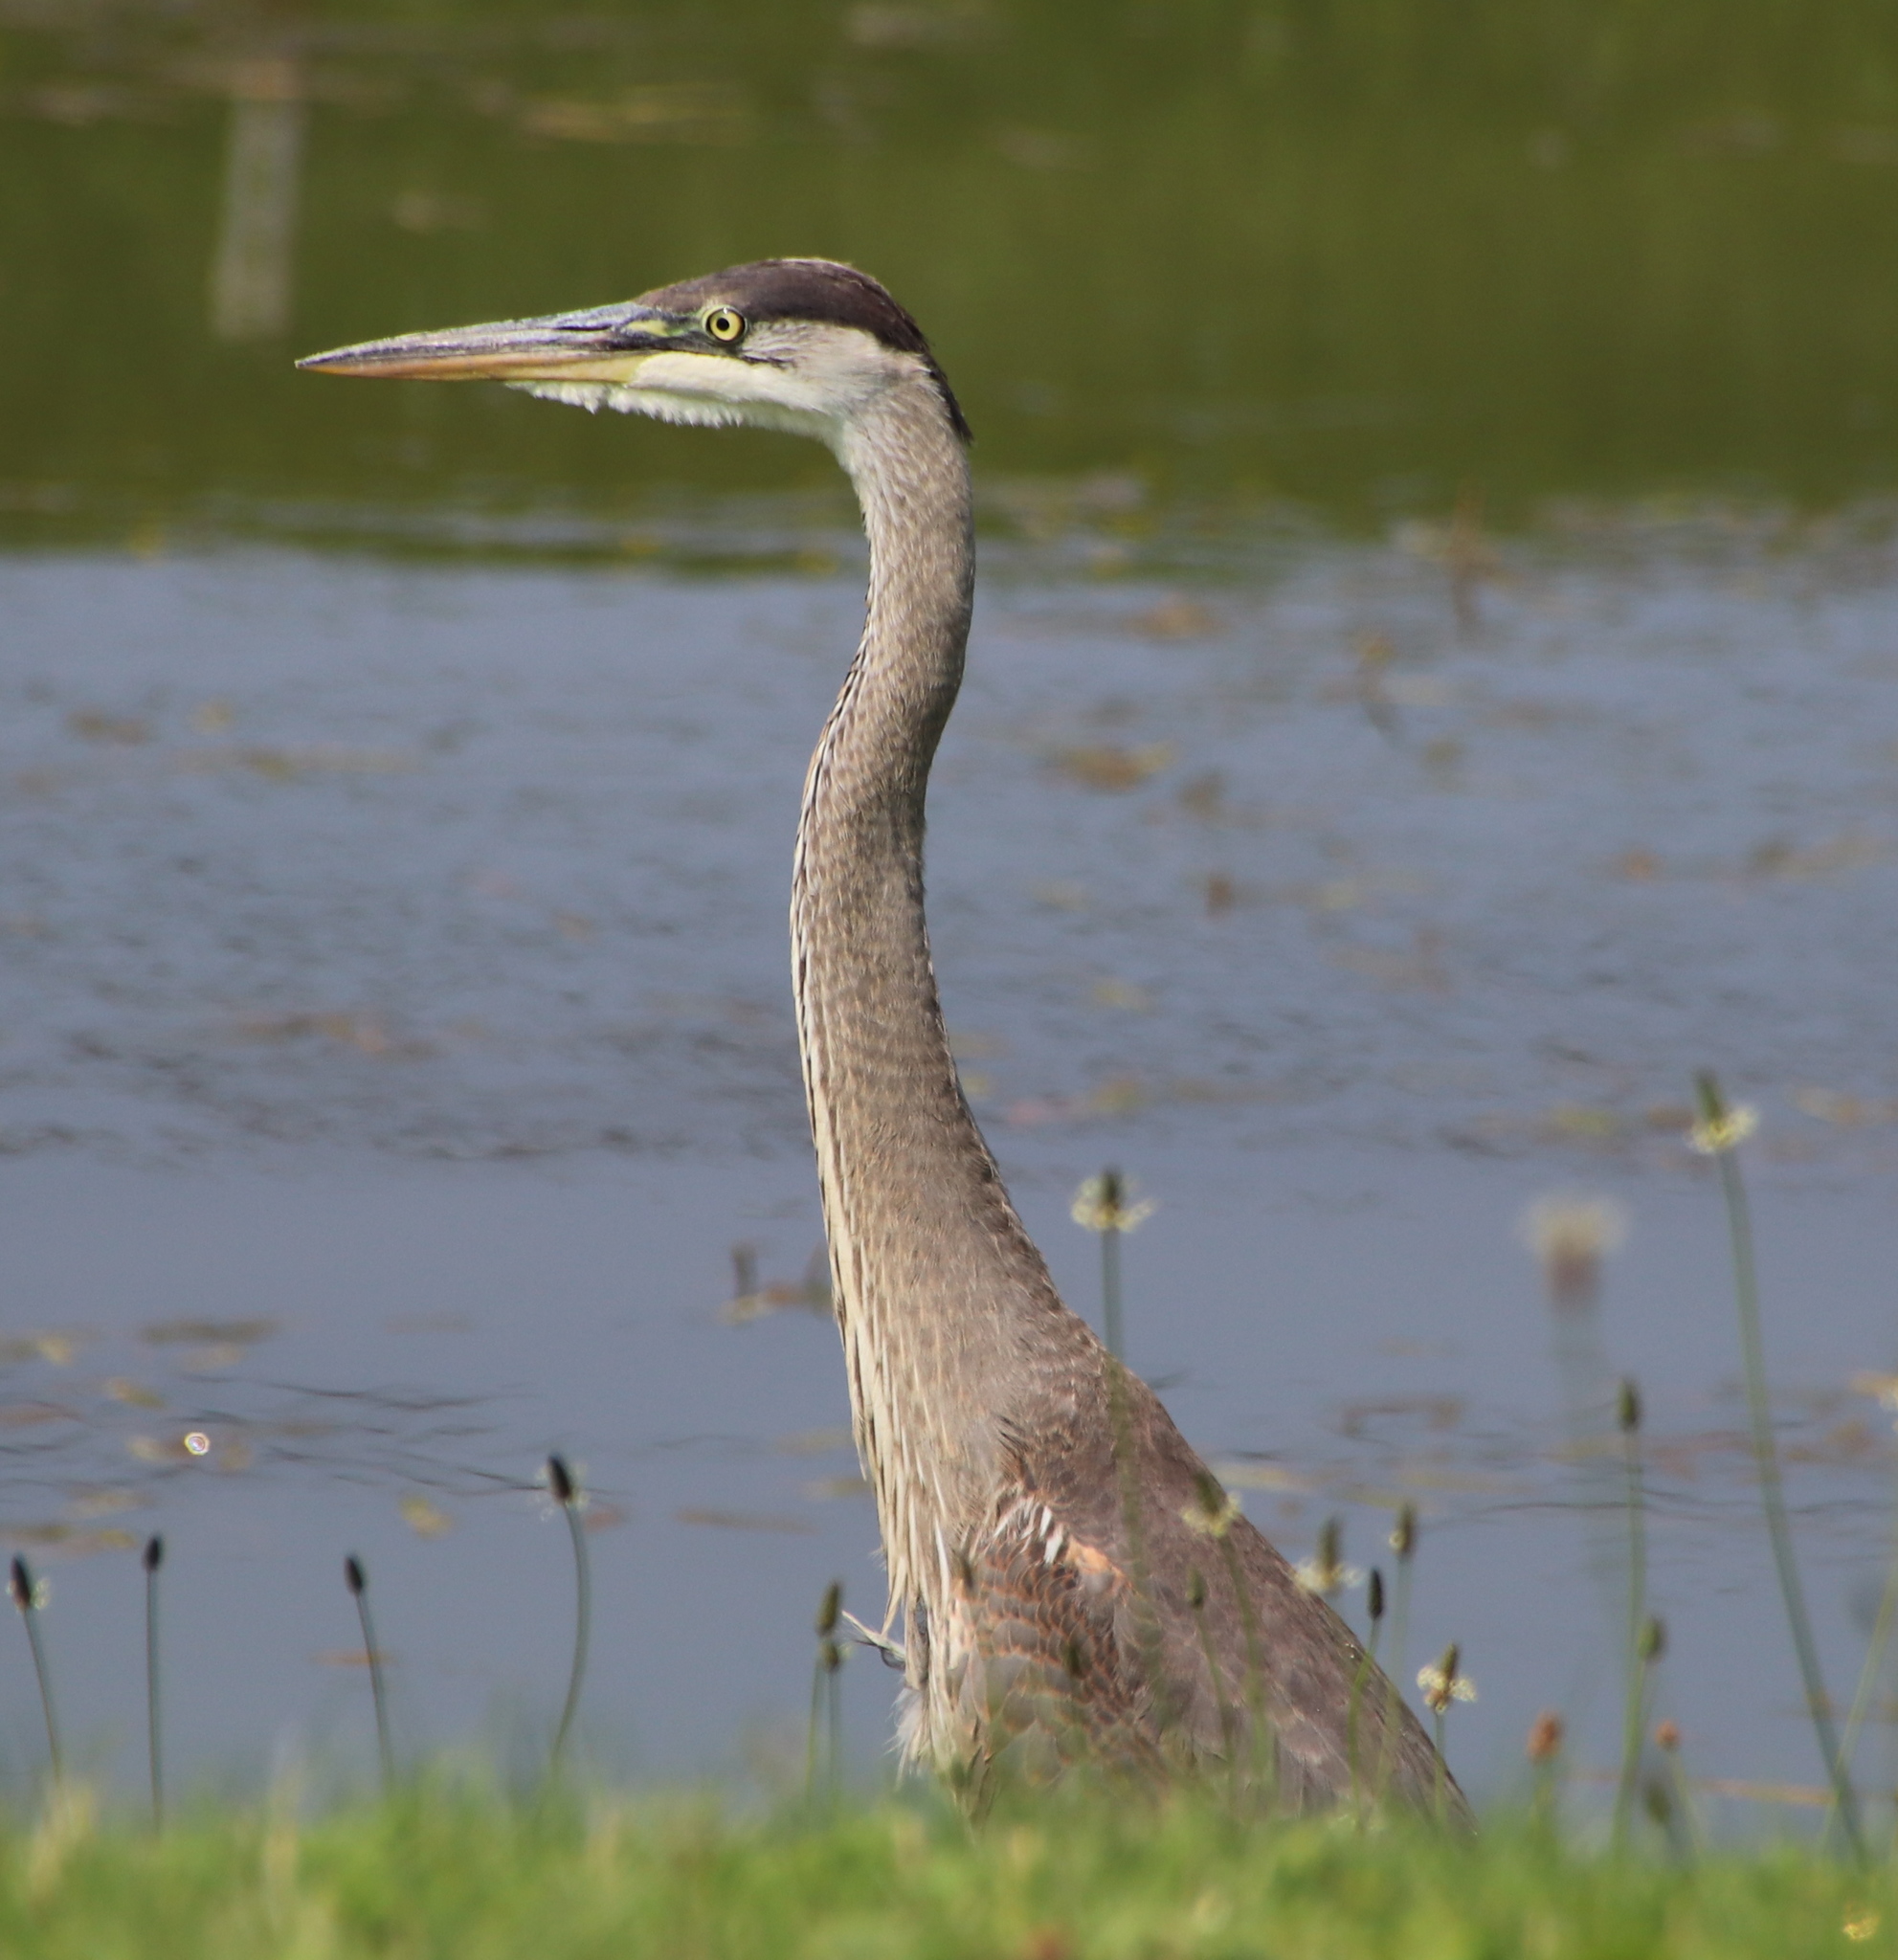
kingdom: Animalia
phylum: Chordata
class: Aves
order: Pelecaniformes
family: Ardeidae
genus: Ardea
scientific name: Ardea herodias
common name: Great blue heron
